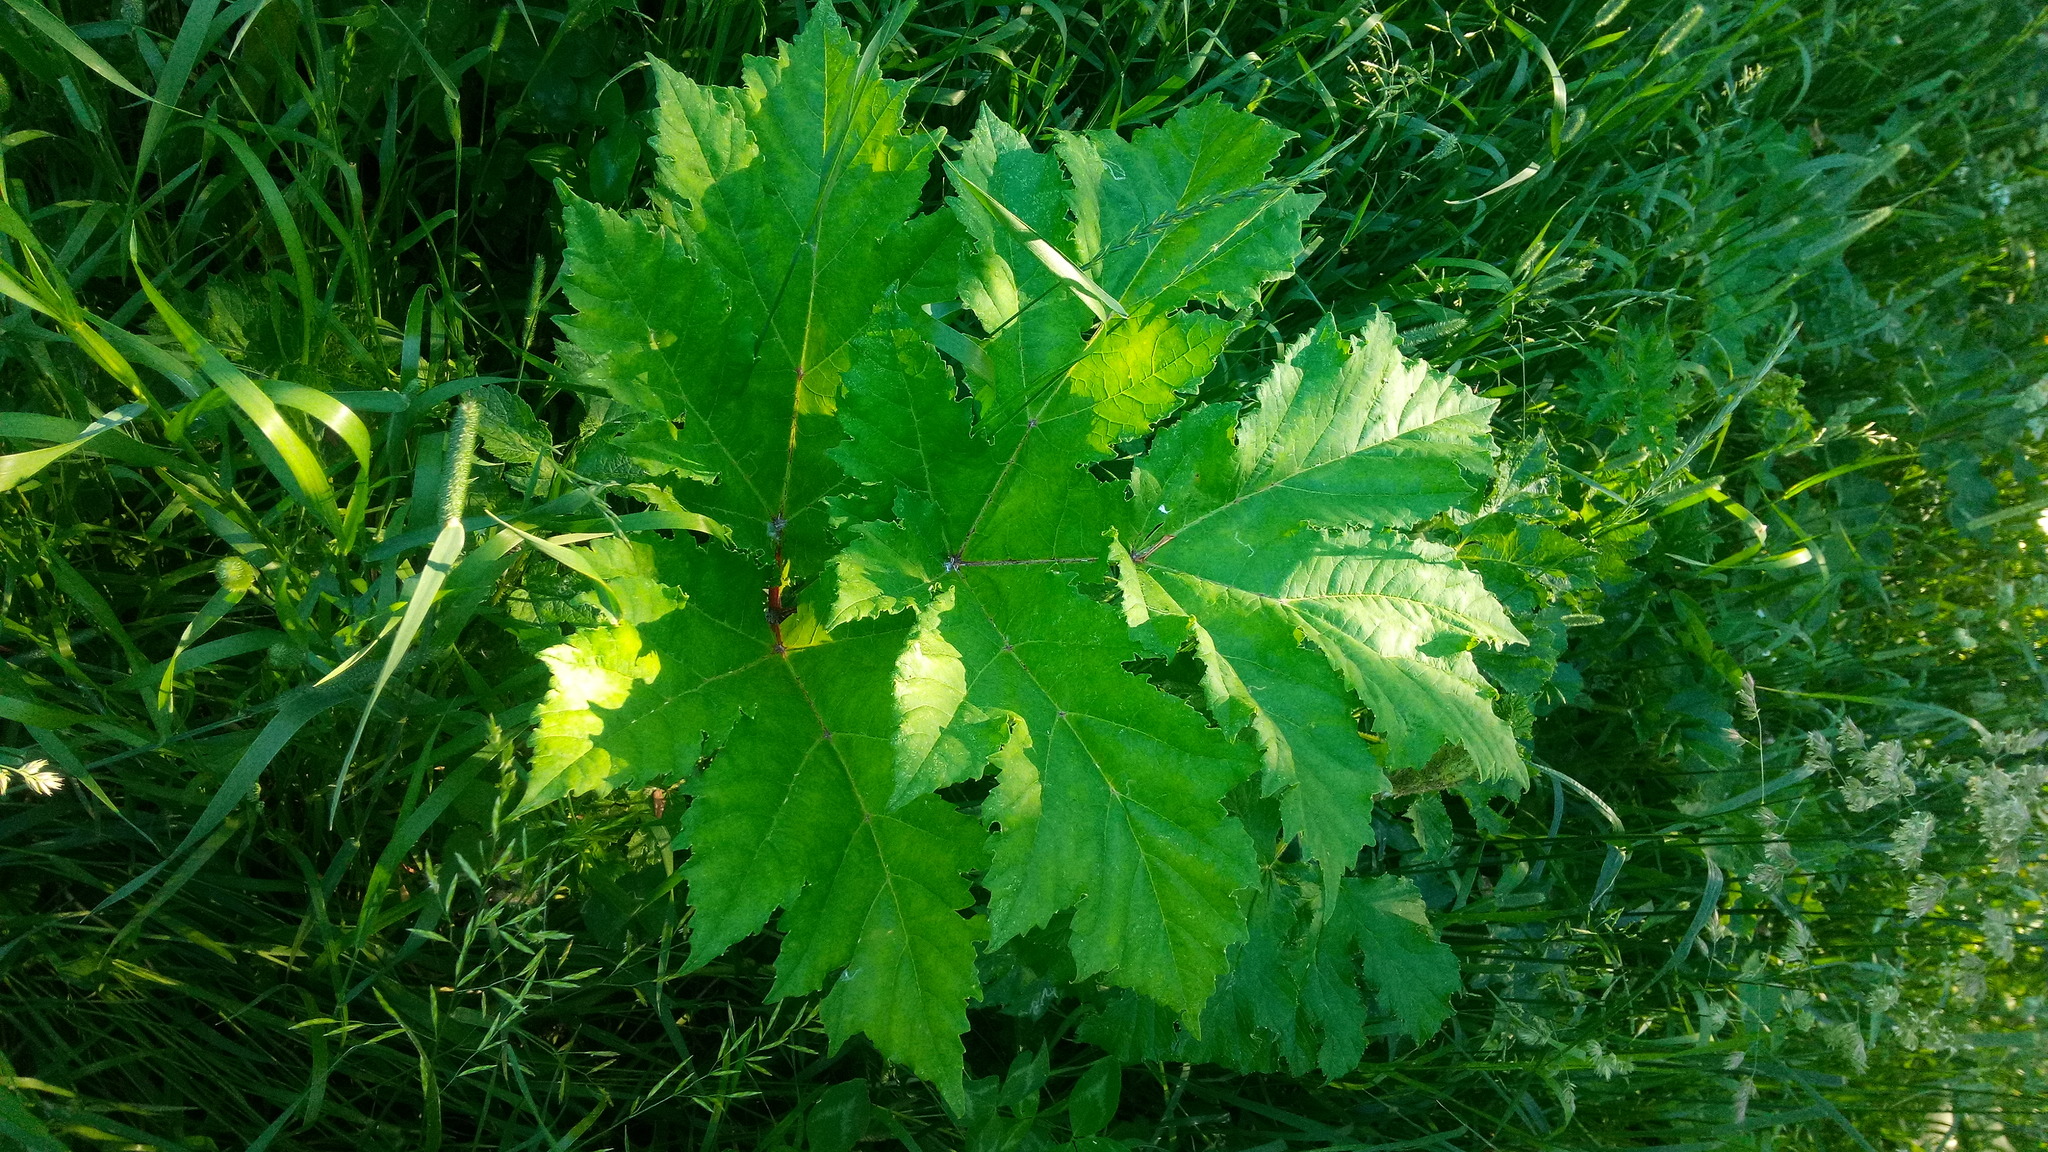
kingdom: Plantae
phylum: Tracheophyta
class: Magnoliopsida
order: Apiales
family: Apiaceae
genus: Heracleum
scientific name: Heracleum sosnowskyi
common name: Sosnowsky's hogweed
